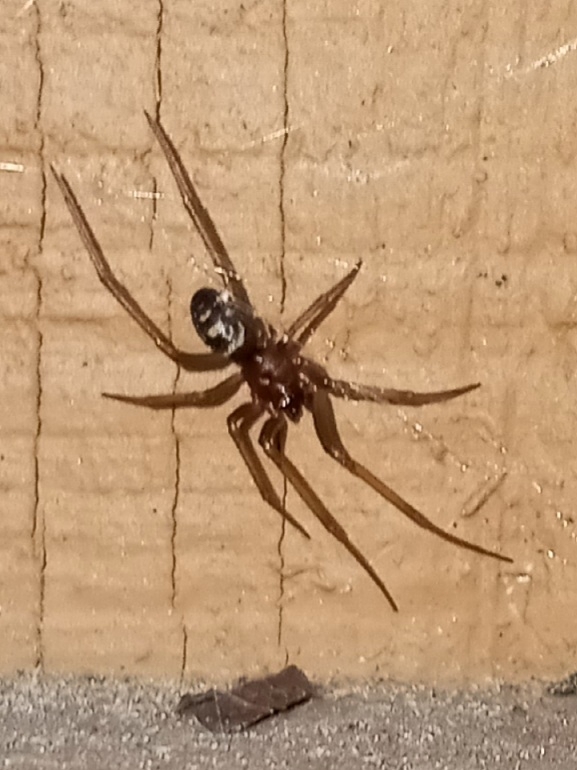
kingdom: Animalia
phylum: Arthropoda
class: Arachnida
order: Araneae
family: Theridiidae
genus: Steatoda
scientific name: Steatoda grossa
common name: False black widow
